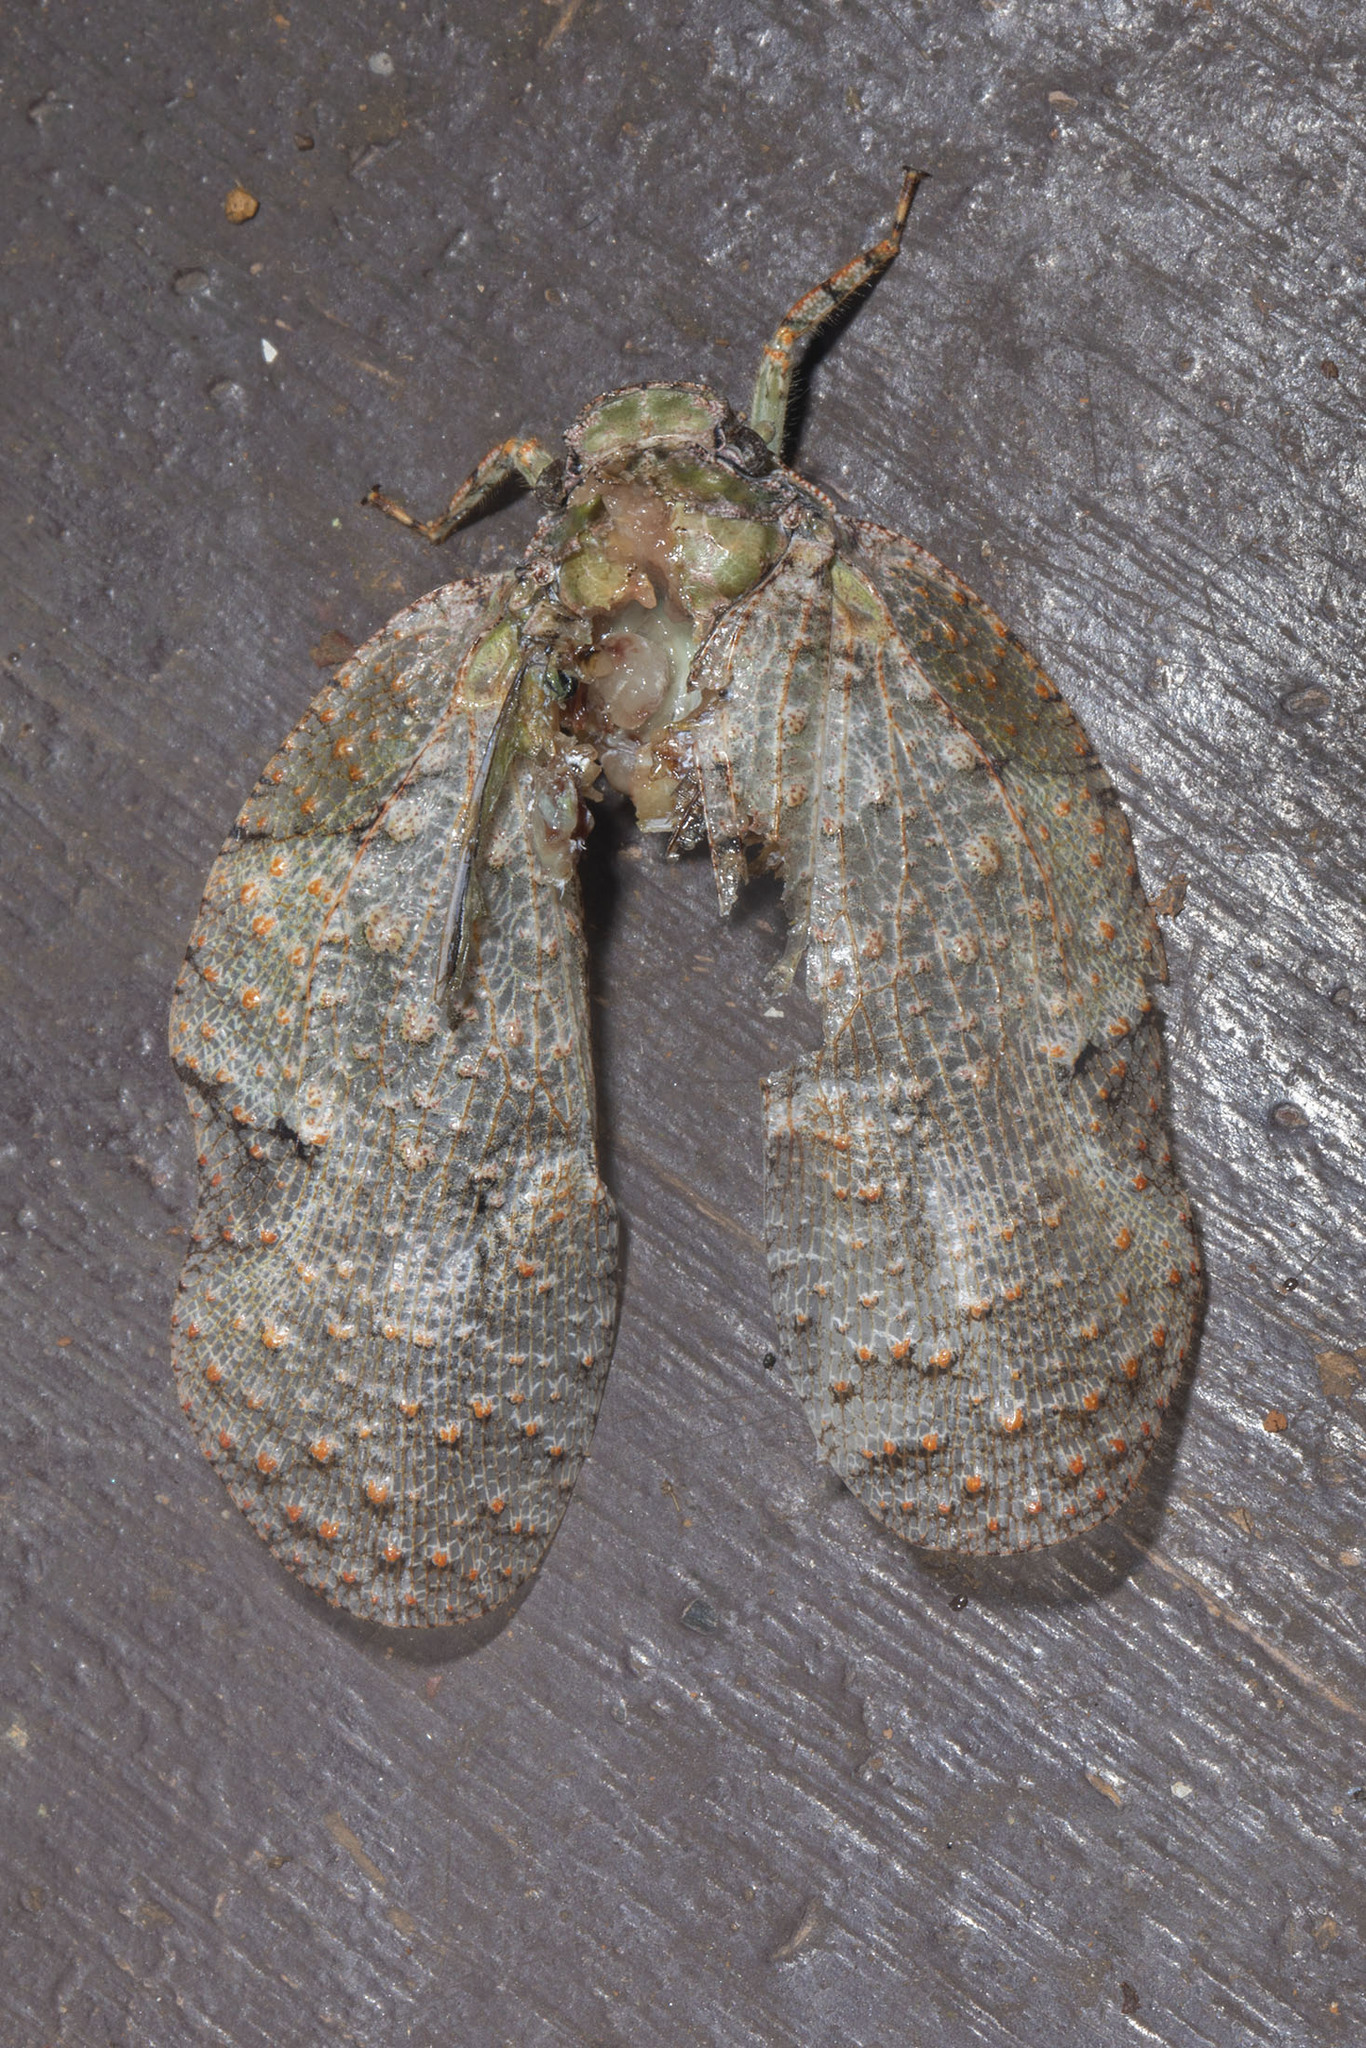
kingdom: Animalia
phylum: Arthropoda
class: Insecta
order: Hemiptera
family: Fulgoridae
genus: Flatolystra
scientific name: Flatolystra verrucosa
